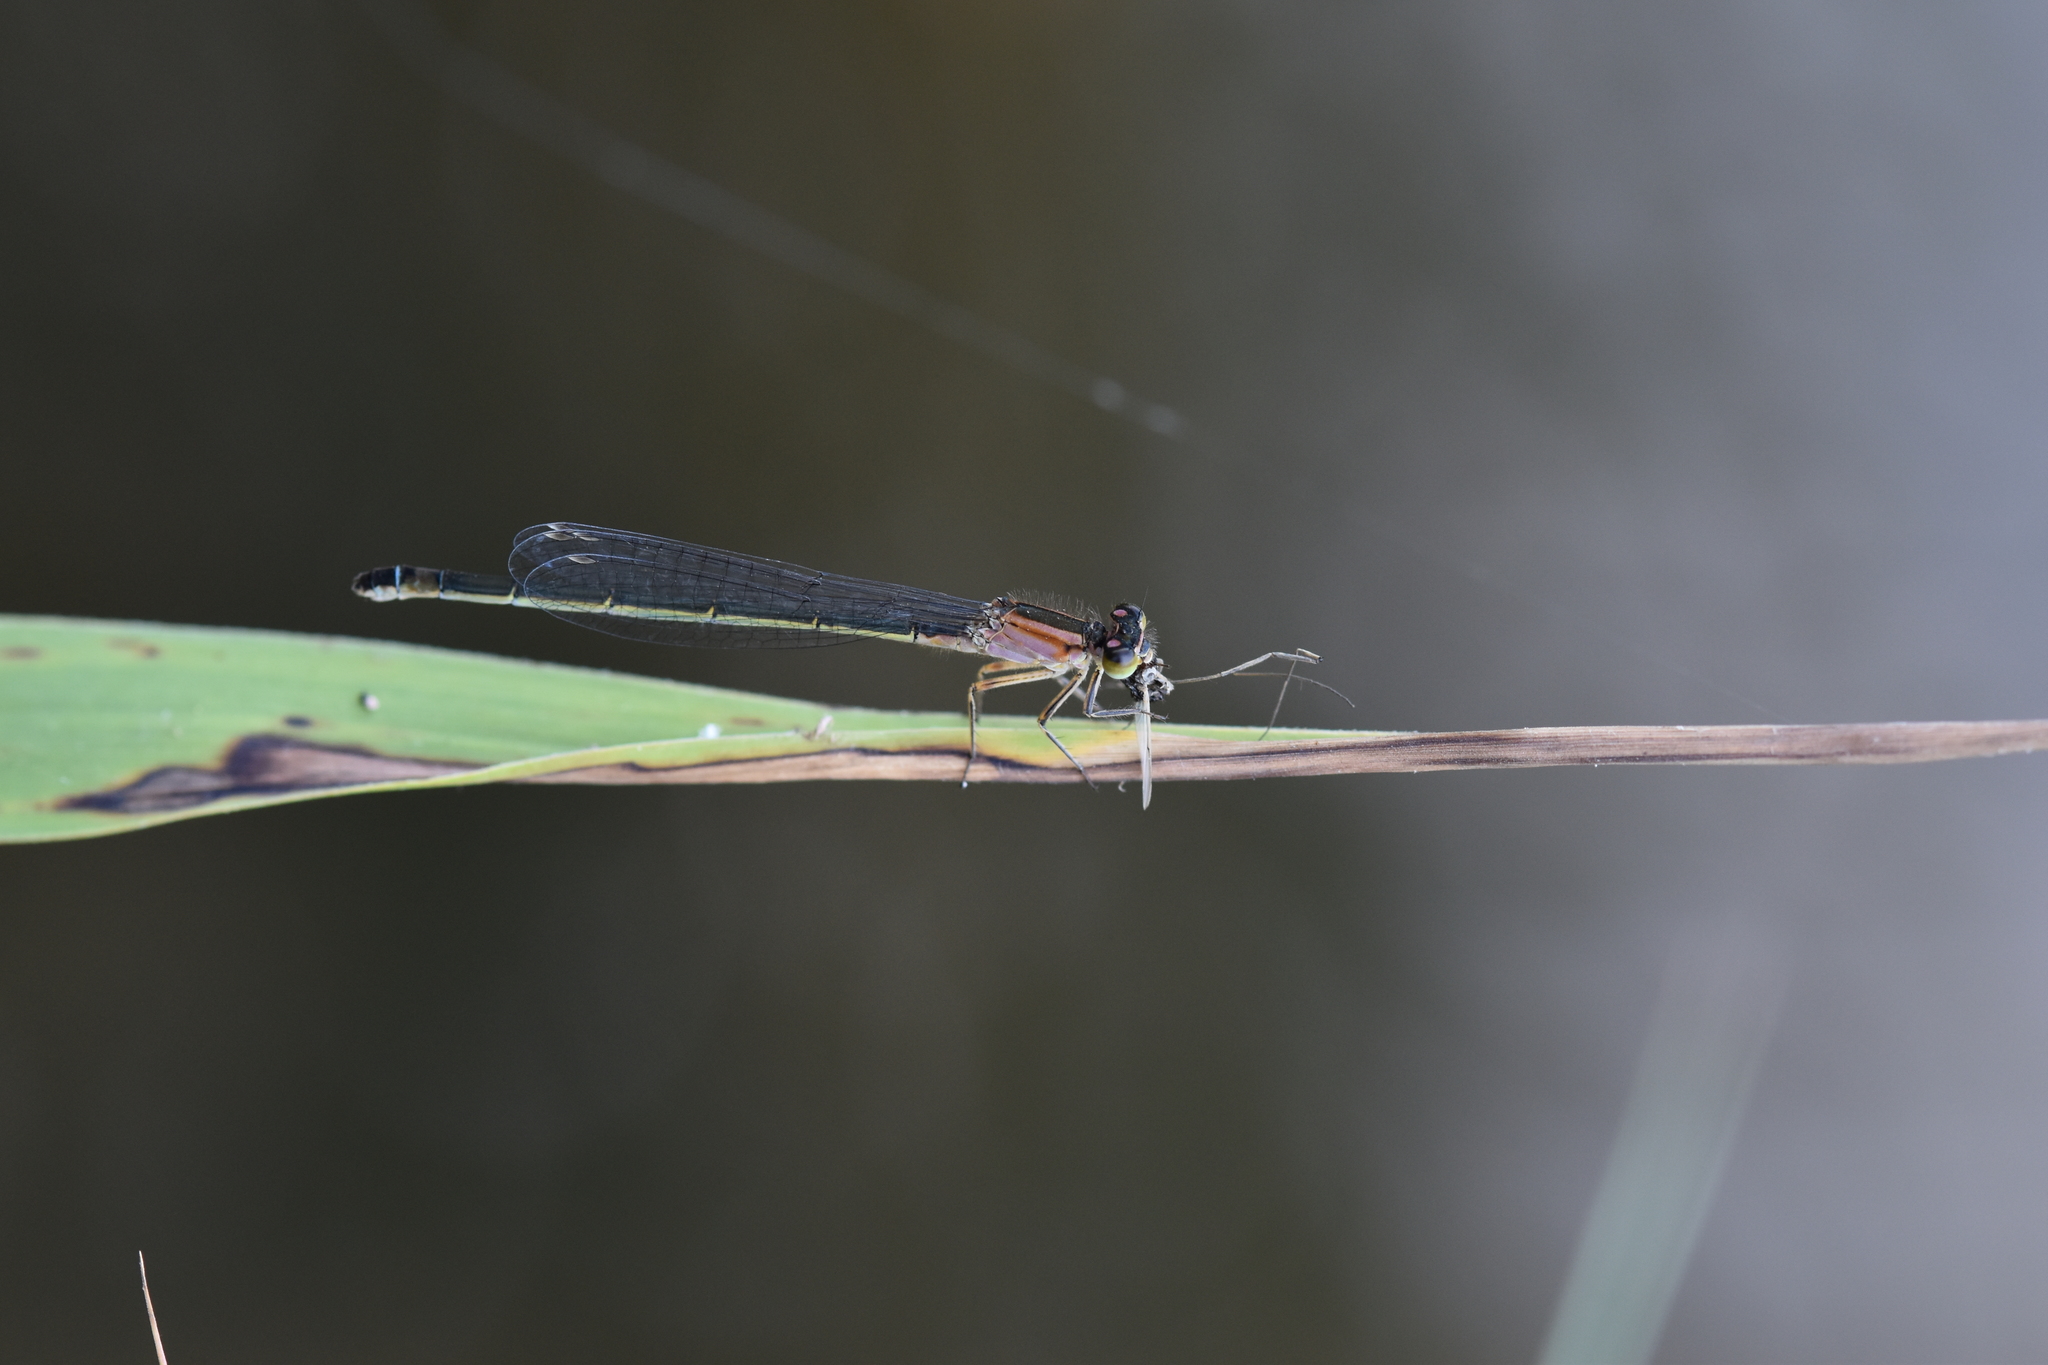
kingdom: Animalia
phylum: Arthropoda
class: Insecta
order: Odonata
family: Coenagrionidae
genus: Ischnura
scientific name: Ischnura elegans
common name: Blue-tailed damselfly
